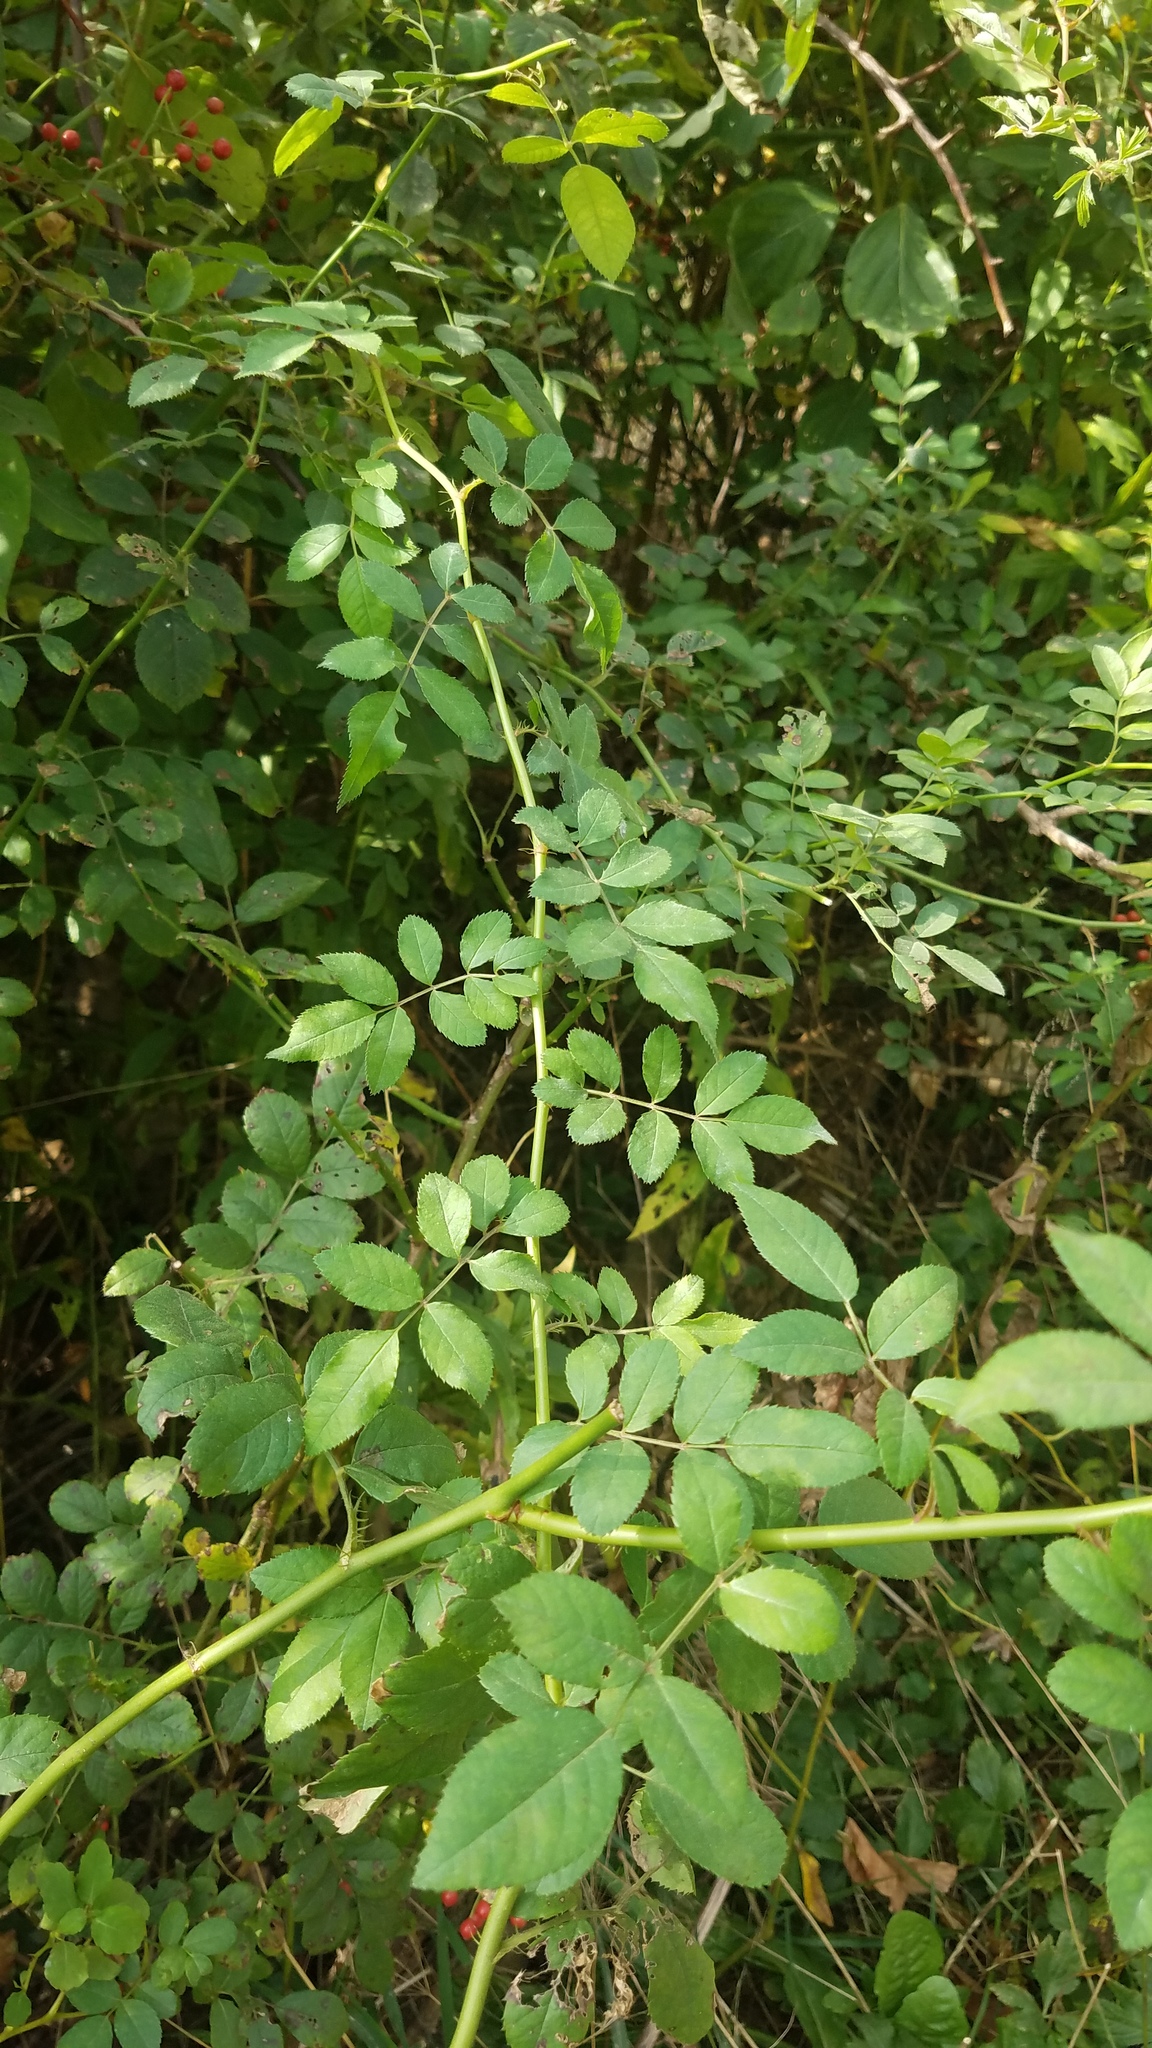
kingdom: Plantae
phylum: Tracheophyta
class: Magnoliopsida
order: Rosales
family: Rosaceae
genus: Rosa
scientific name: Rosa multiflora
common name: Multiflora rose
